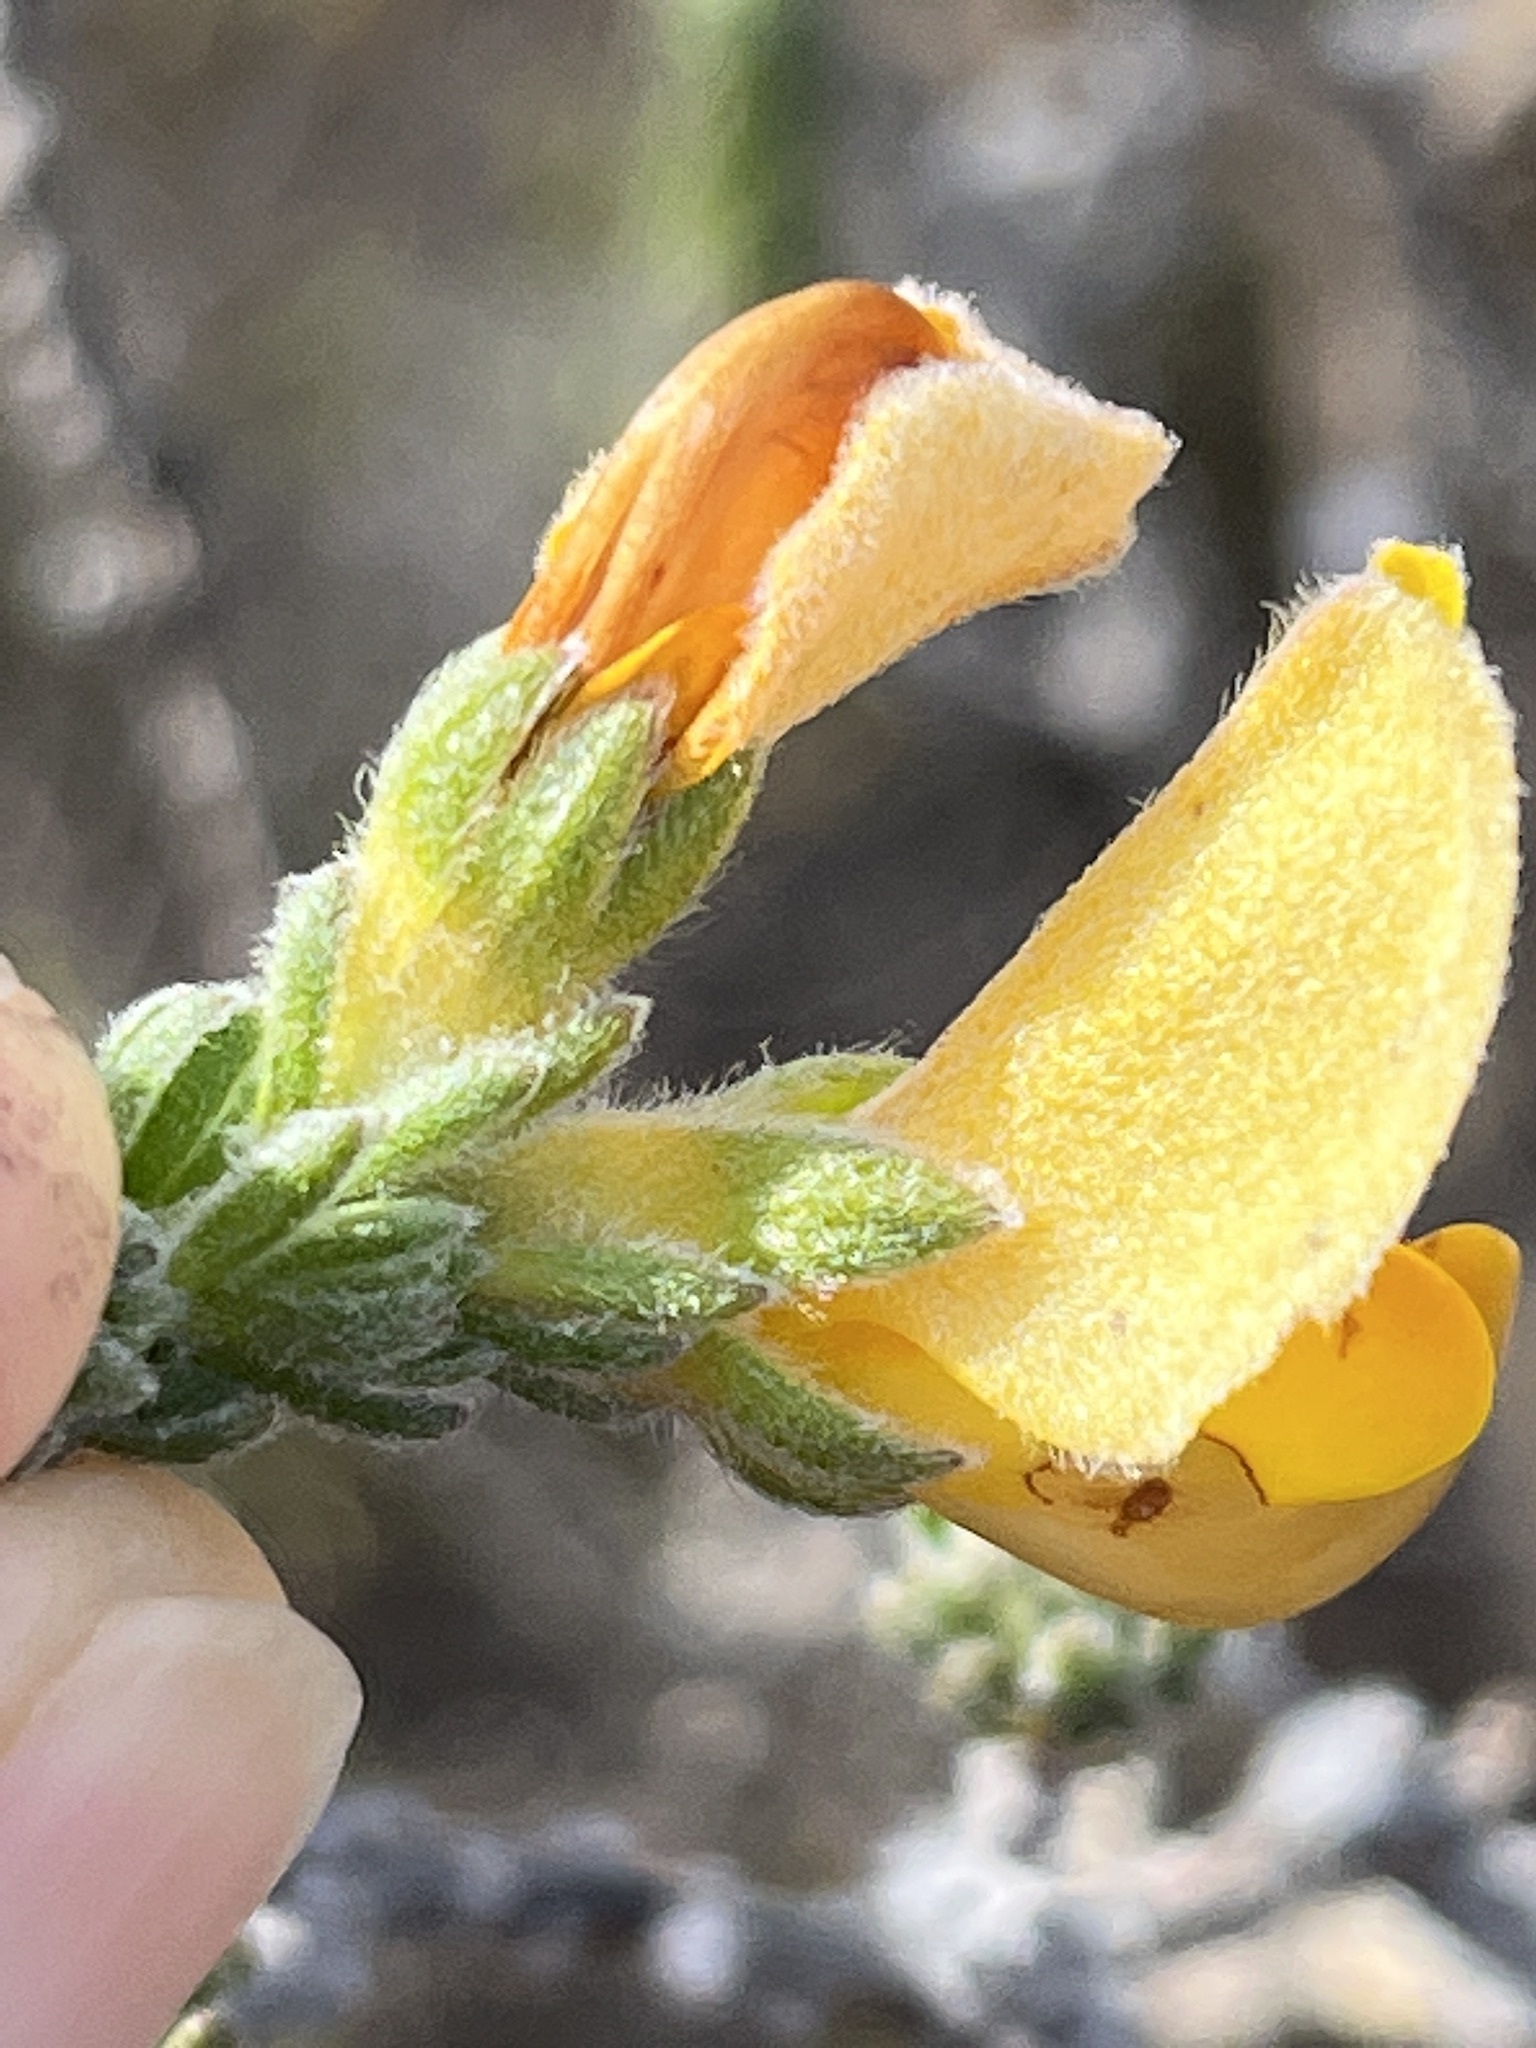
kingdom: Plantae
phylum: Tracheophyta
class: Magnoliopsida
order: Fabales
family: Fabaceae
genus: Aspalathus
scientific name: Aspalathus ciliaris
